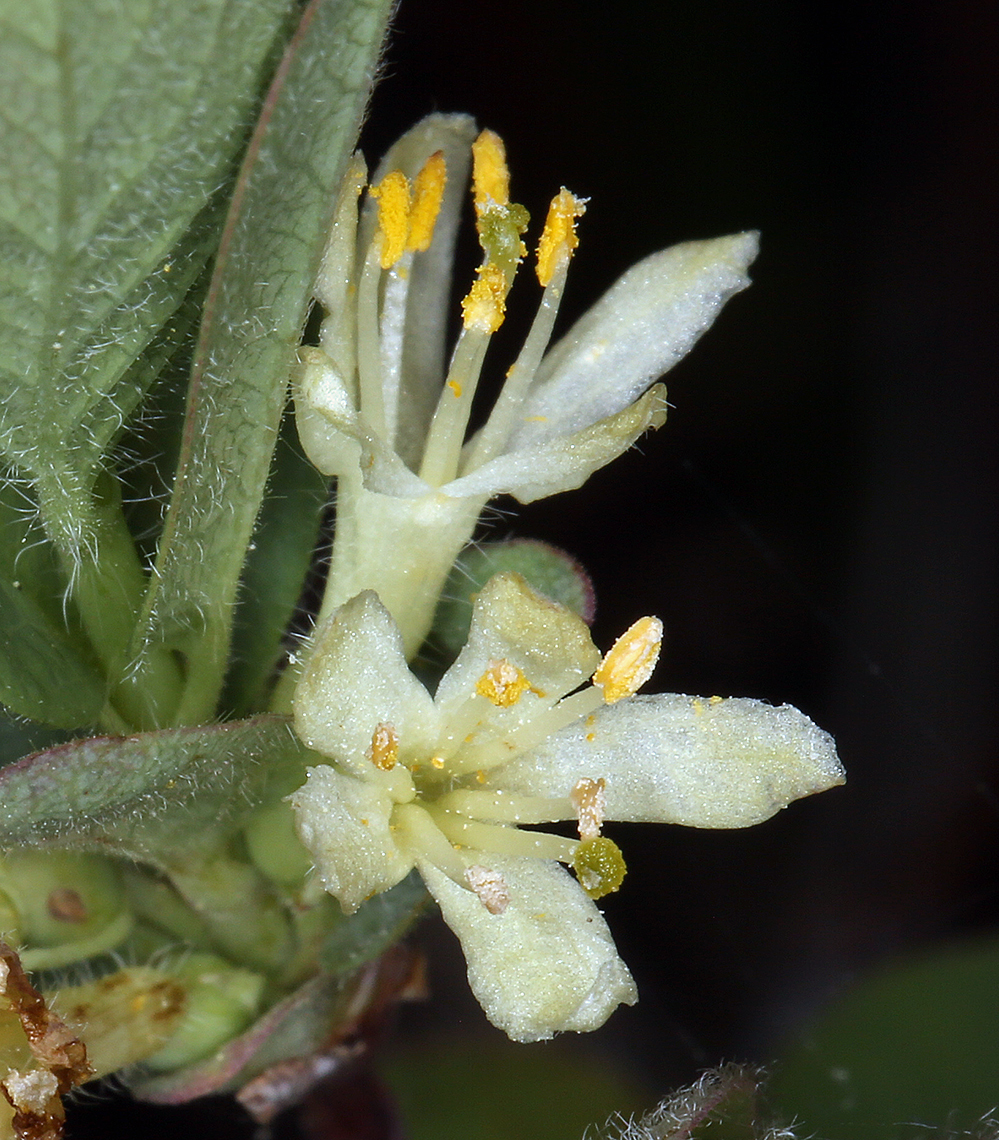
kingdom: Plantae
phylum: Tracheophyta
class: Magnoliopsida
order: Dipsacales
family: Caprifoliaceae
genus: Lonicera
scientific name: Lonicera caerulea
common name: Blue honeysuckle
